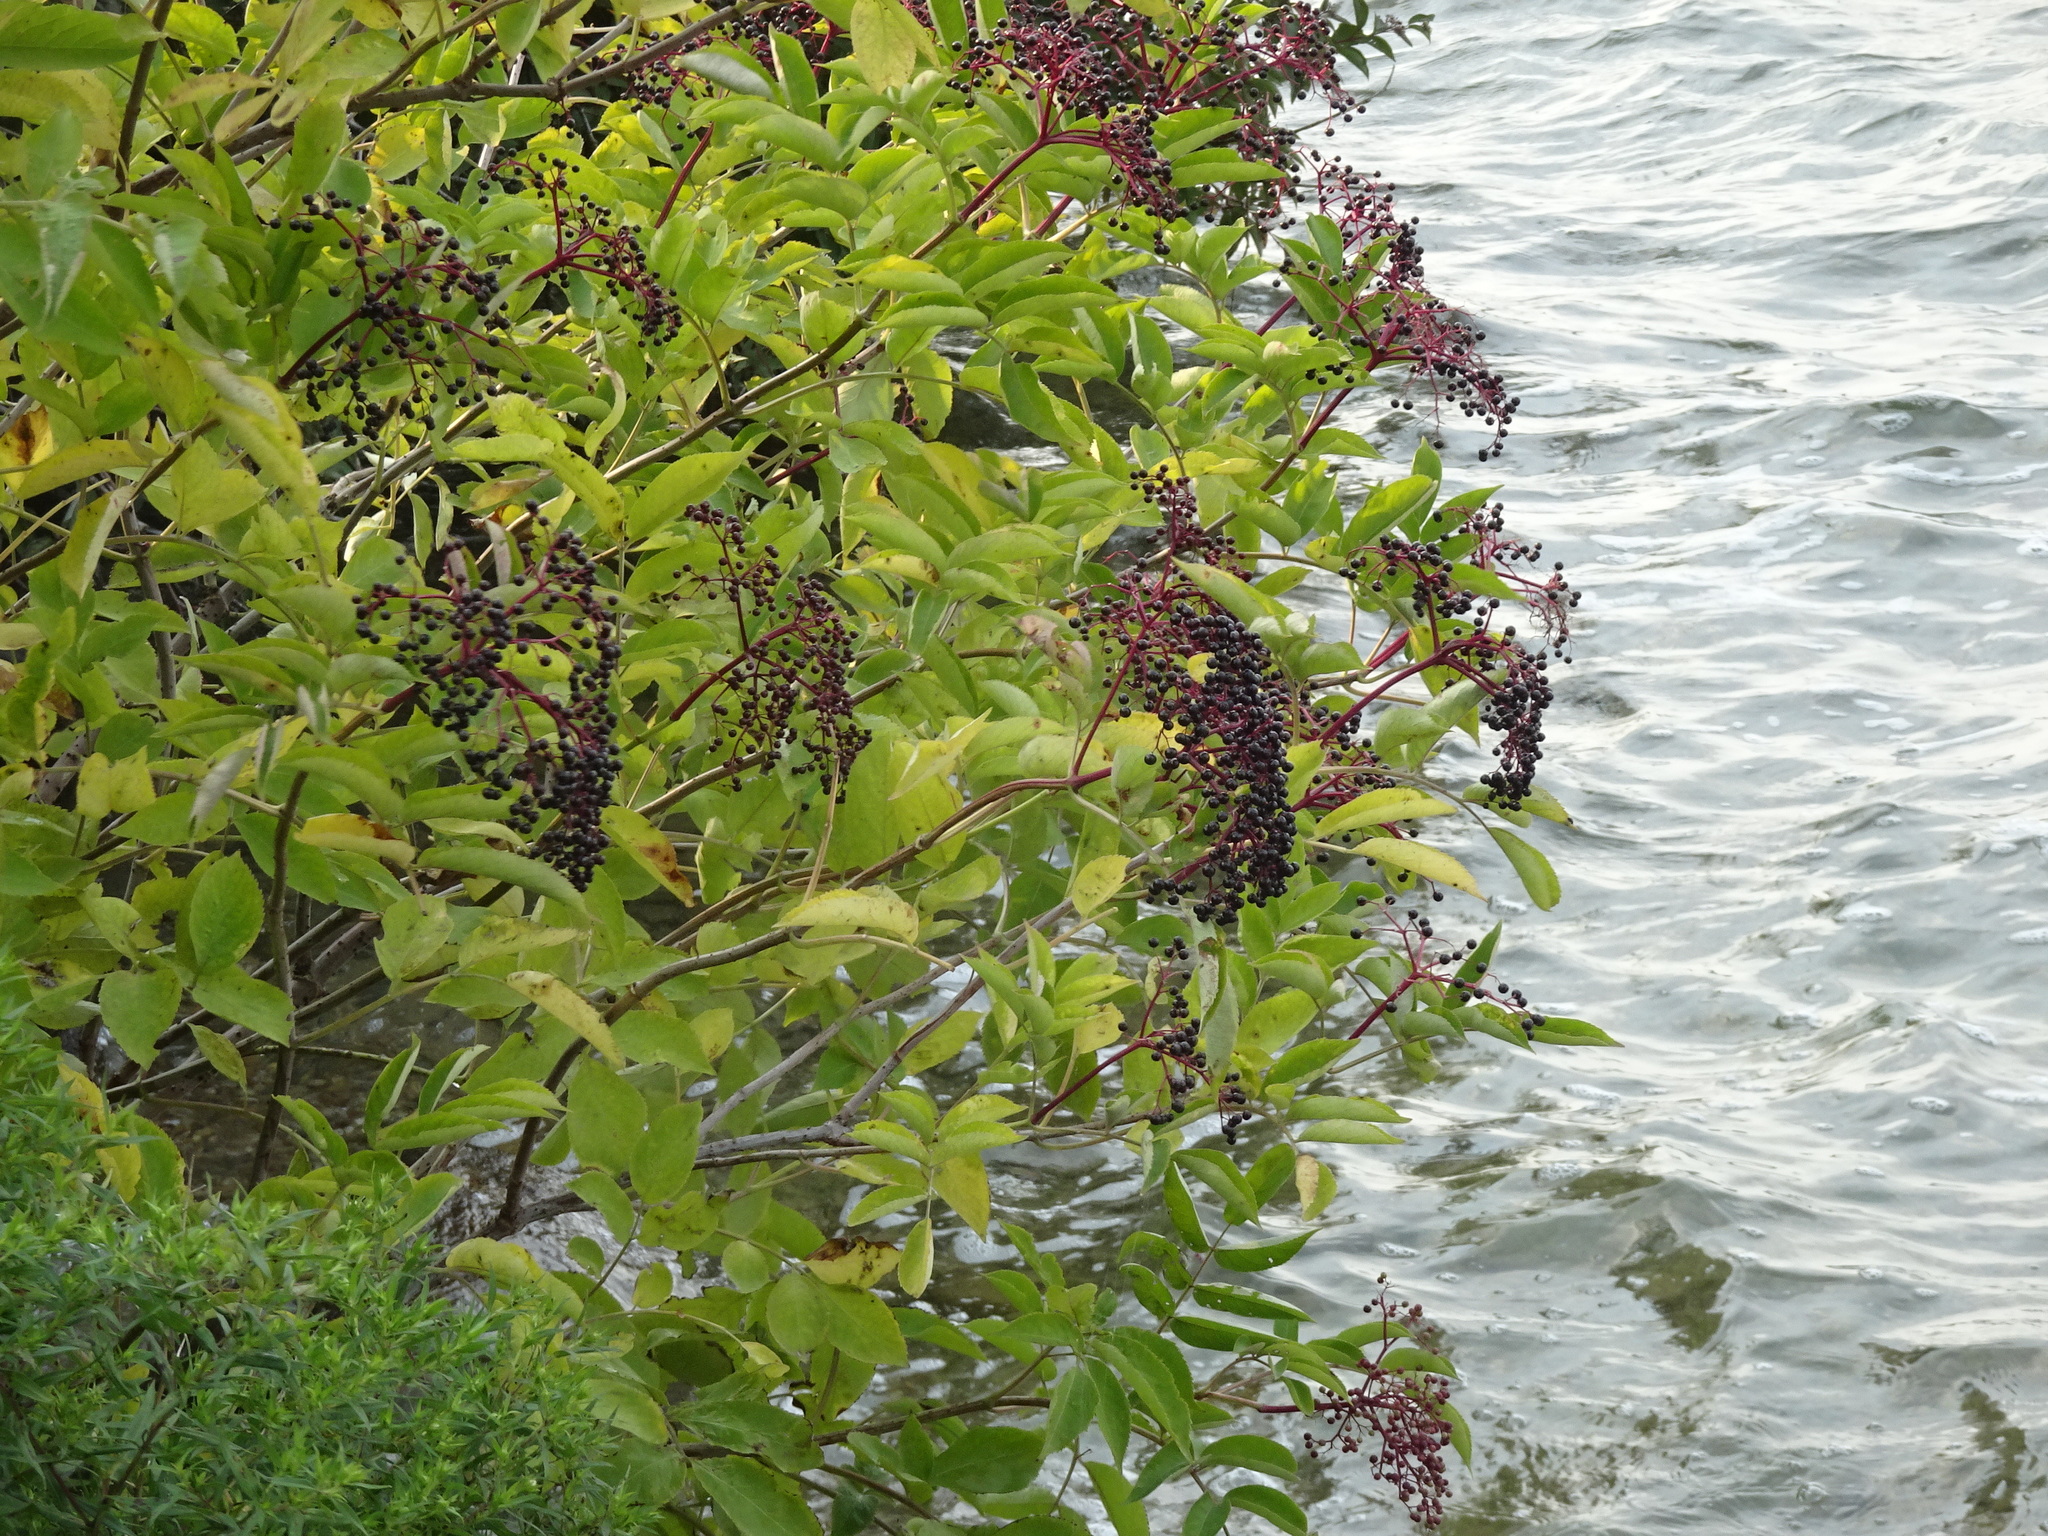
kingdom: Plantae
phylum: Tracheophyta
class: Magnoliopsida
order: Dipsacales
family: Viburnaceae
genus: Sambucus
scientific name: Sambucus canadensis
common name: American elder
